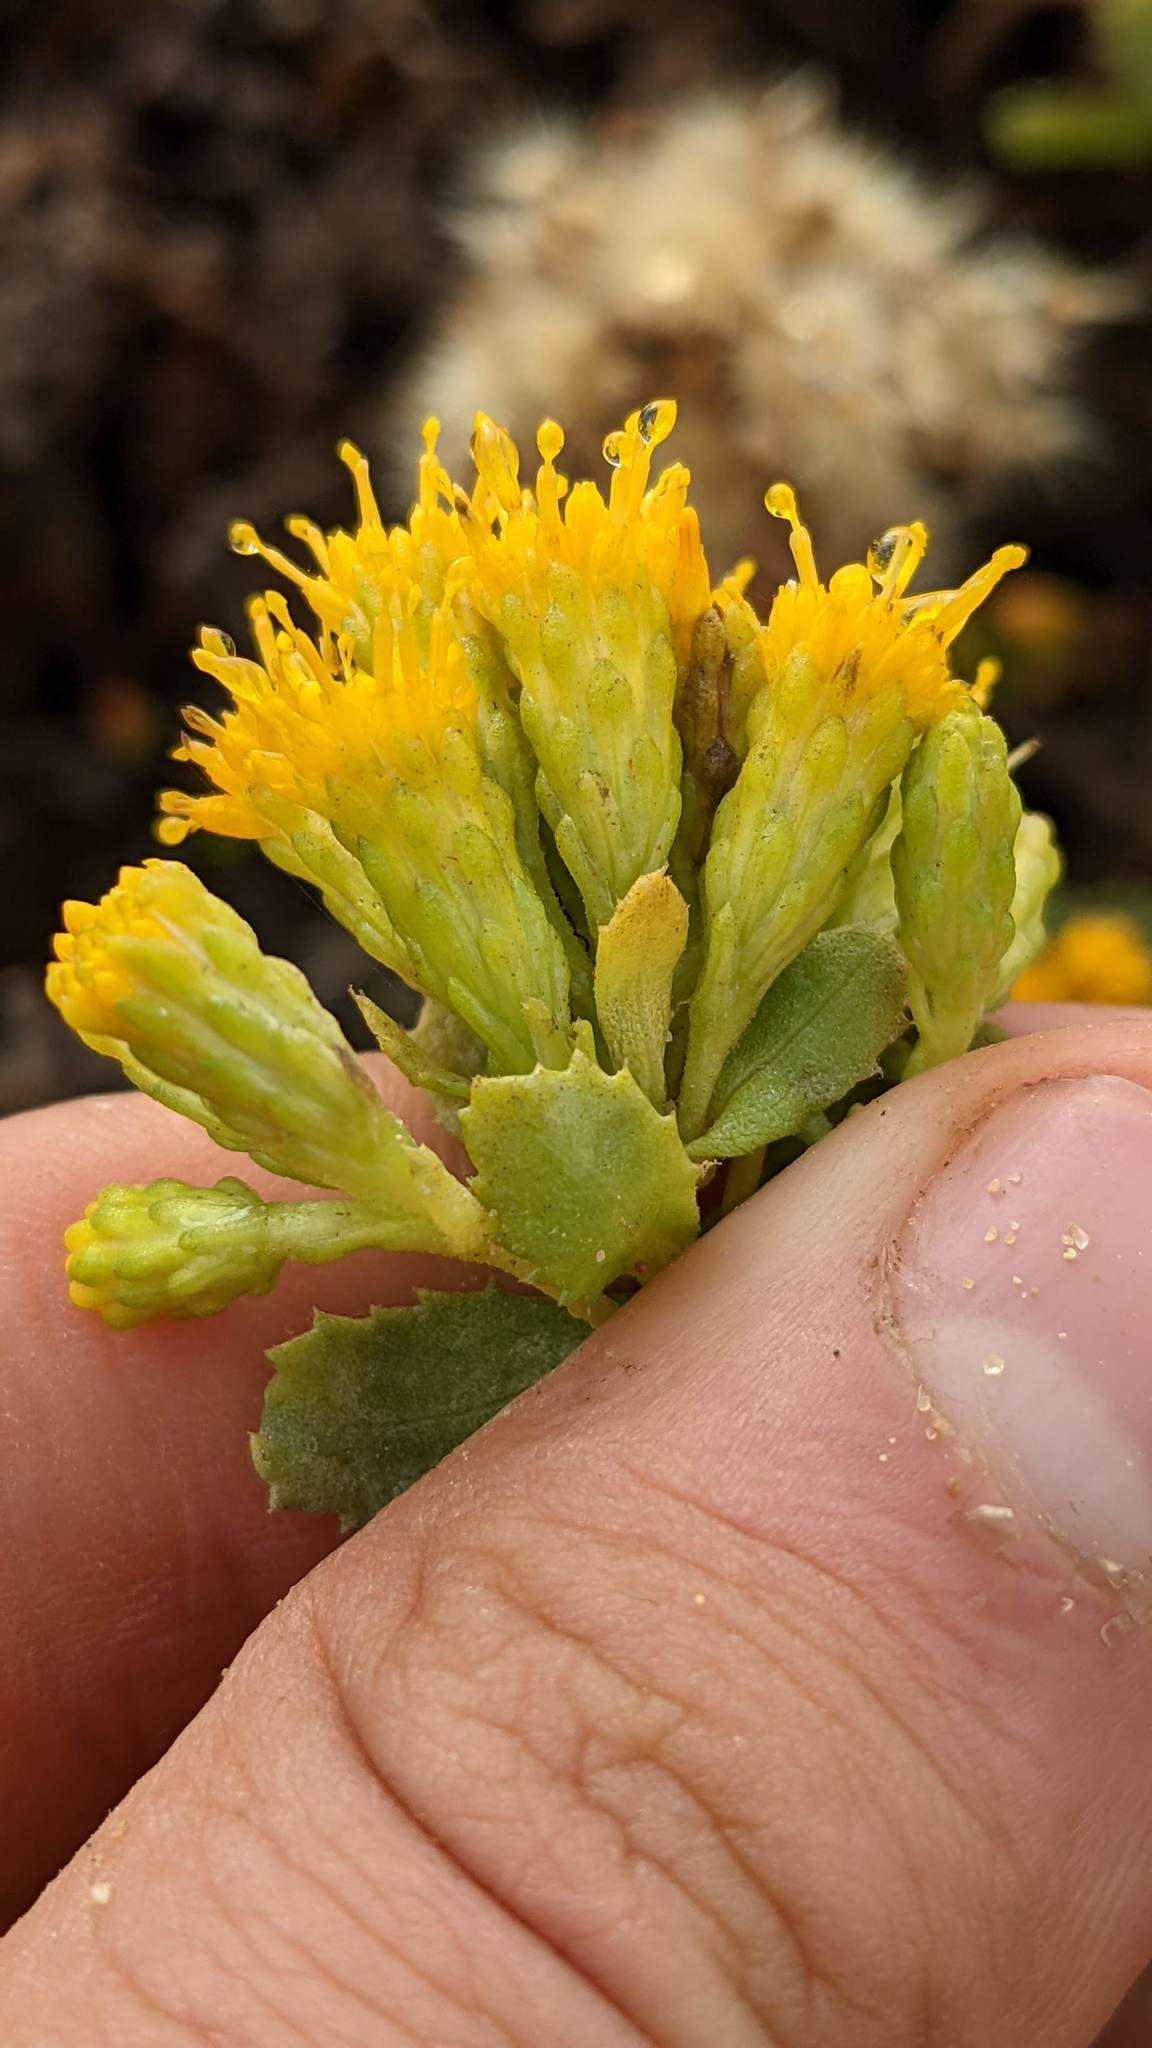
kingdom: Plantae
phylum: Tracheophyta
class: Magnoliopsida
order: Asterales
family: Asteraceae
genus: Isocoma
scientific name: Isocoma menziesii
